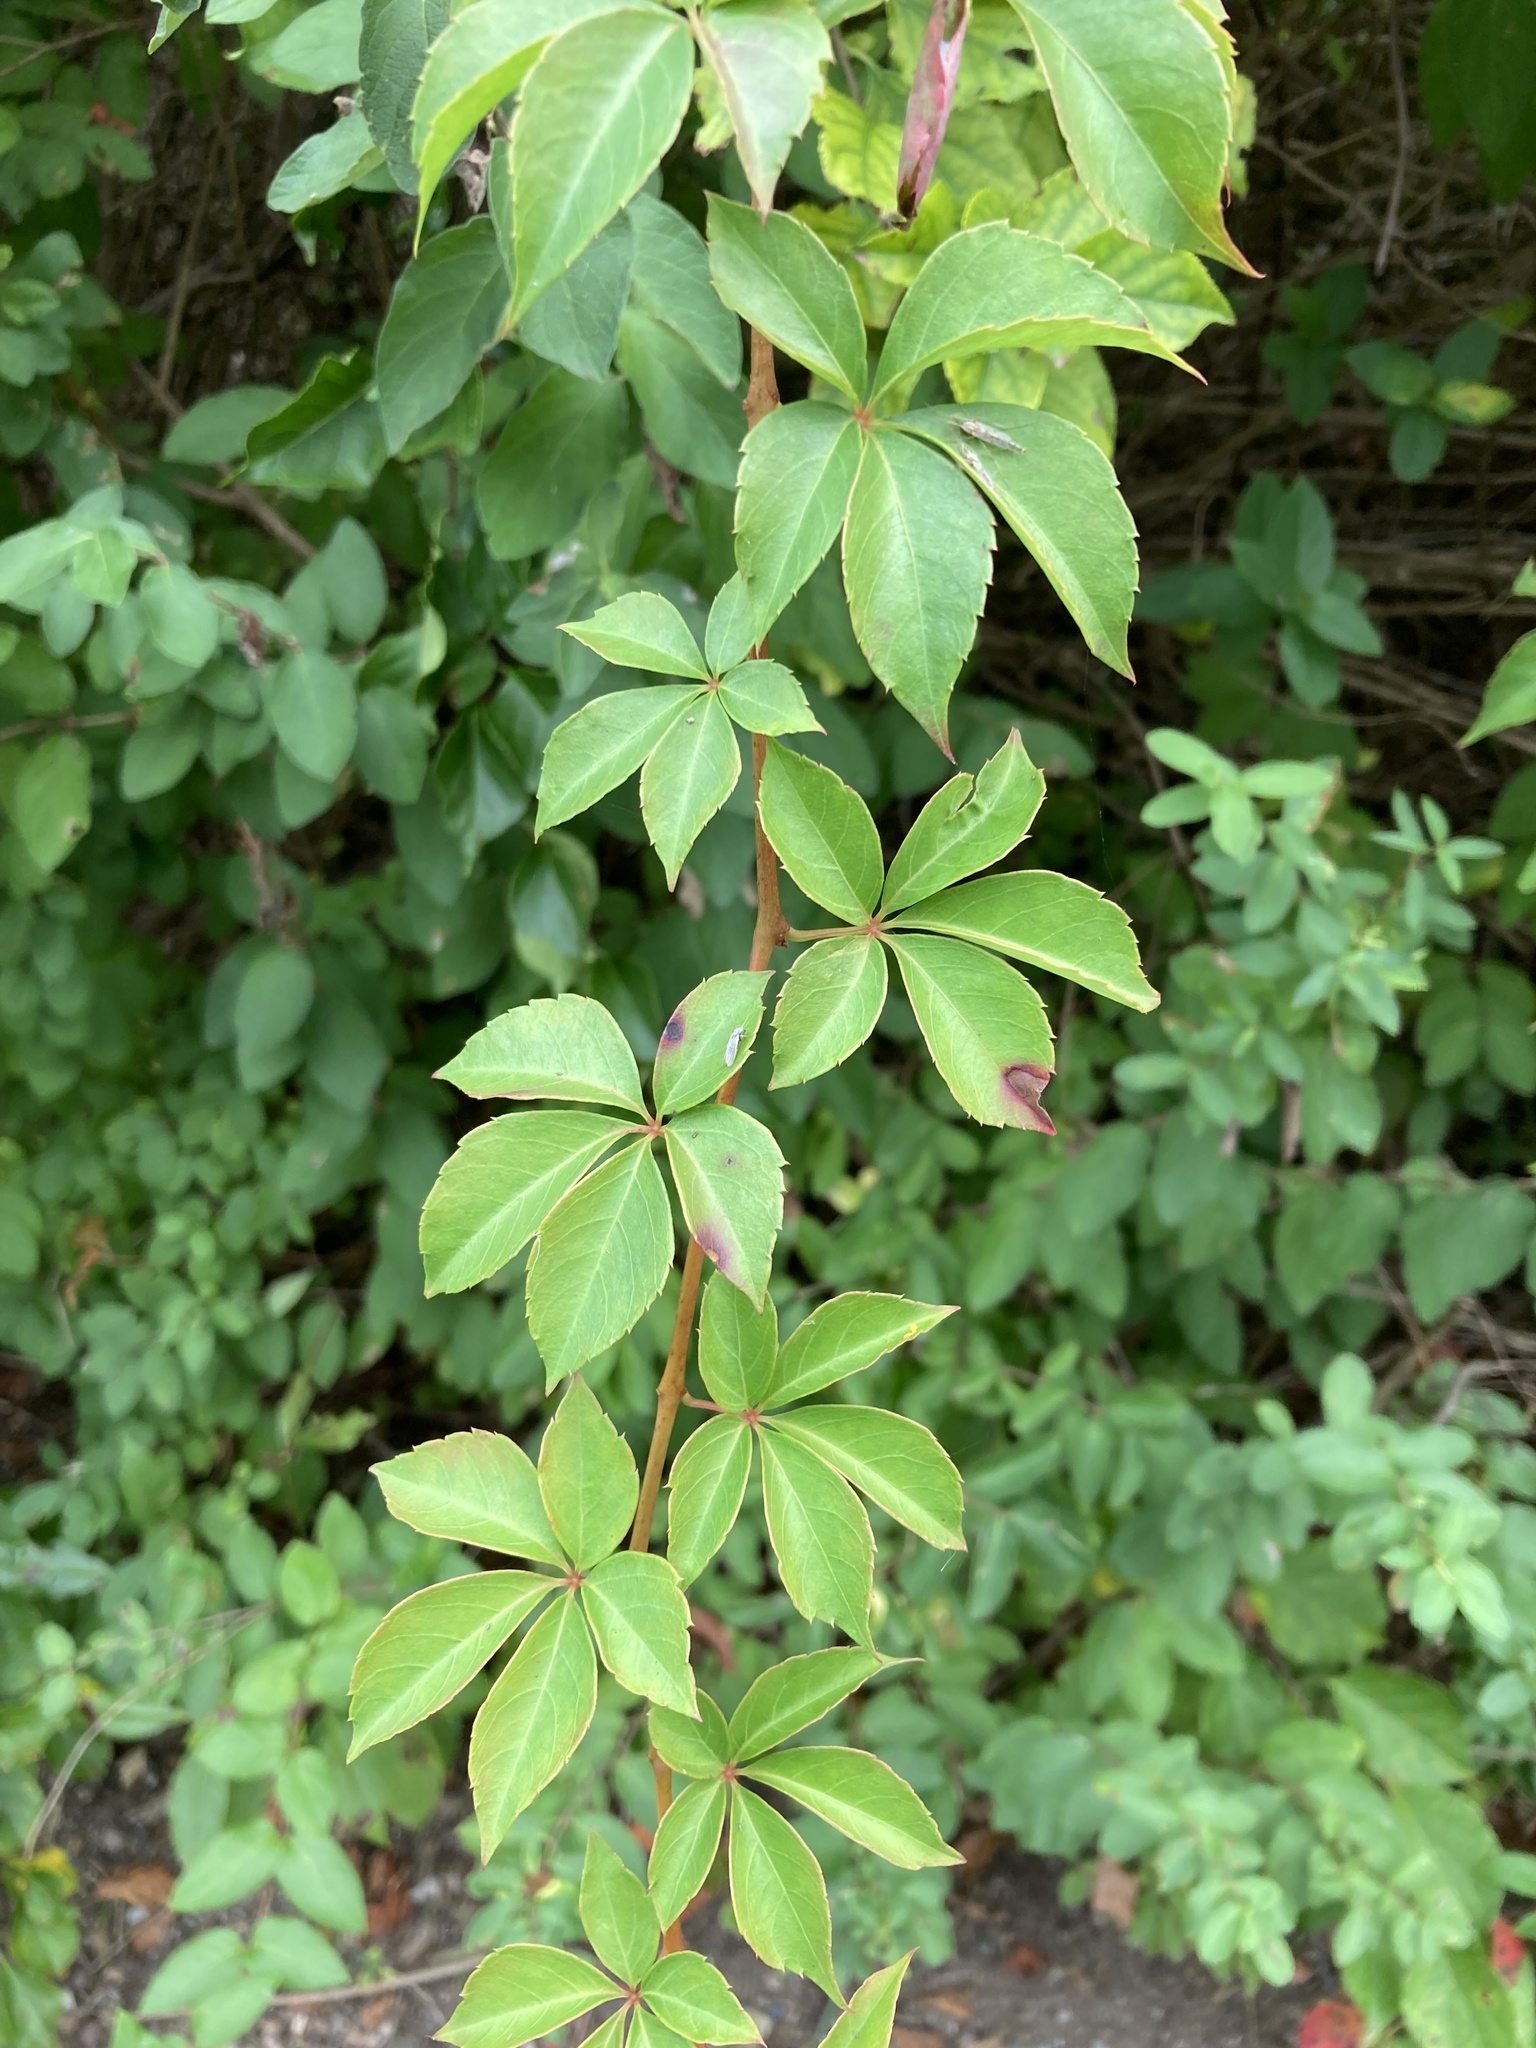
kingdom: Plantae
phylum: Tracheophyta
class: Magnoliopsida
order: Vitales
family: Vitaceae
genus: Parthenocissus
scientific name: Parthenocissus quinquefolia
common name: Virginia-creeper
